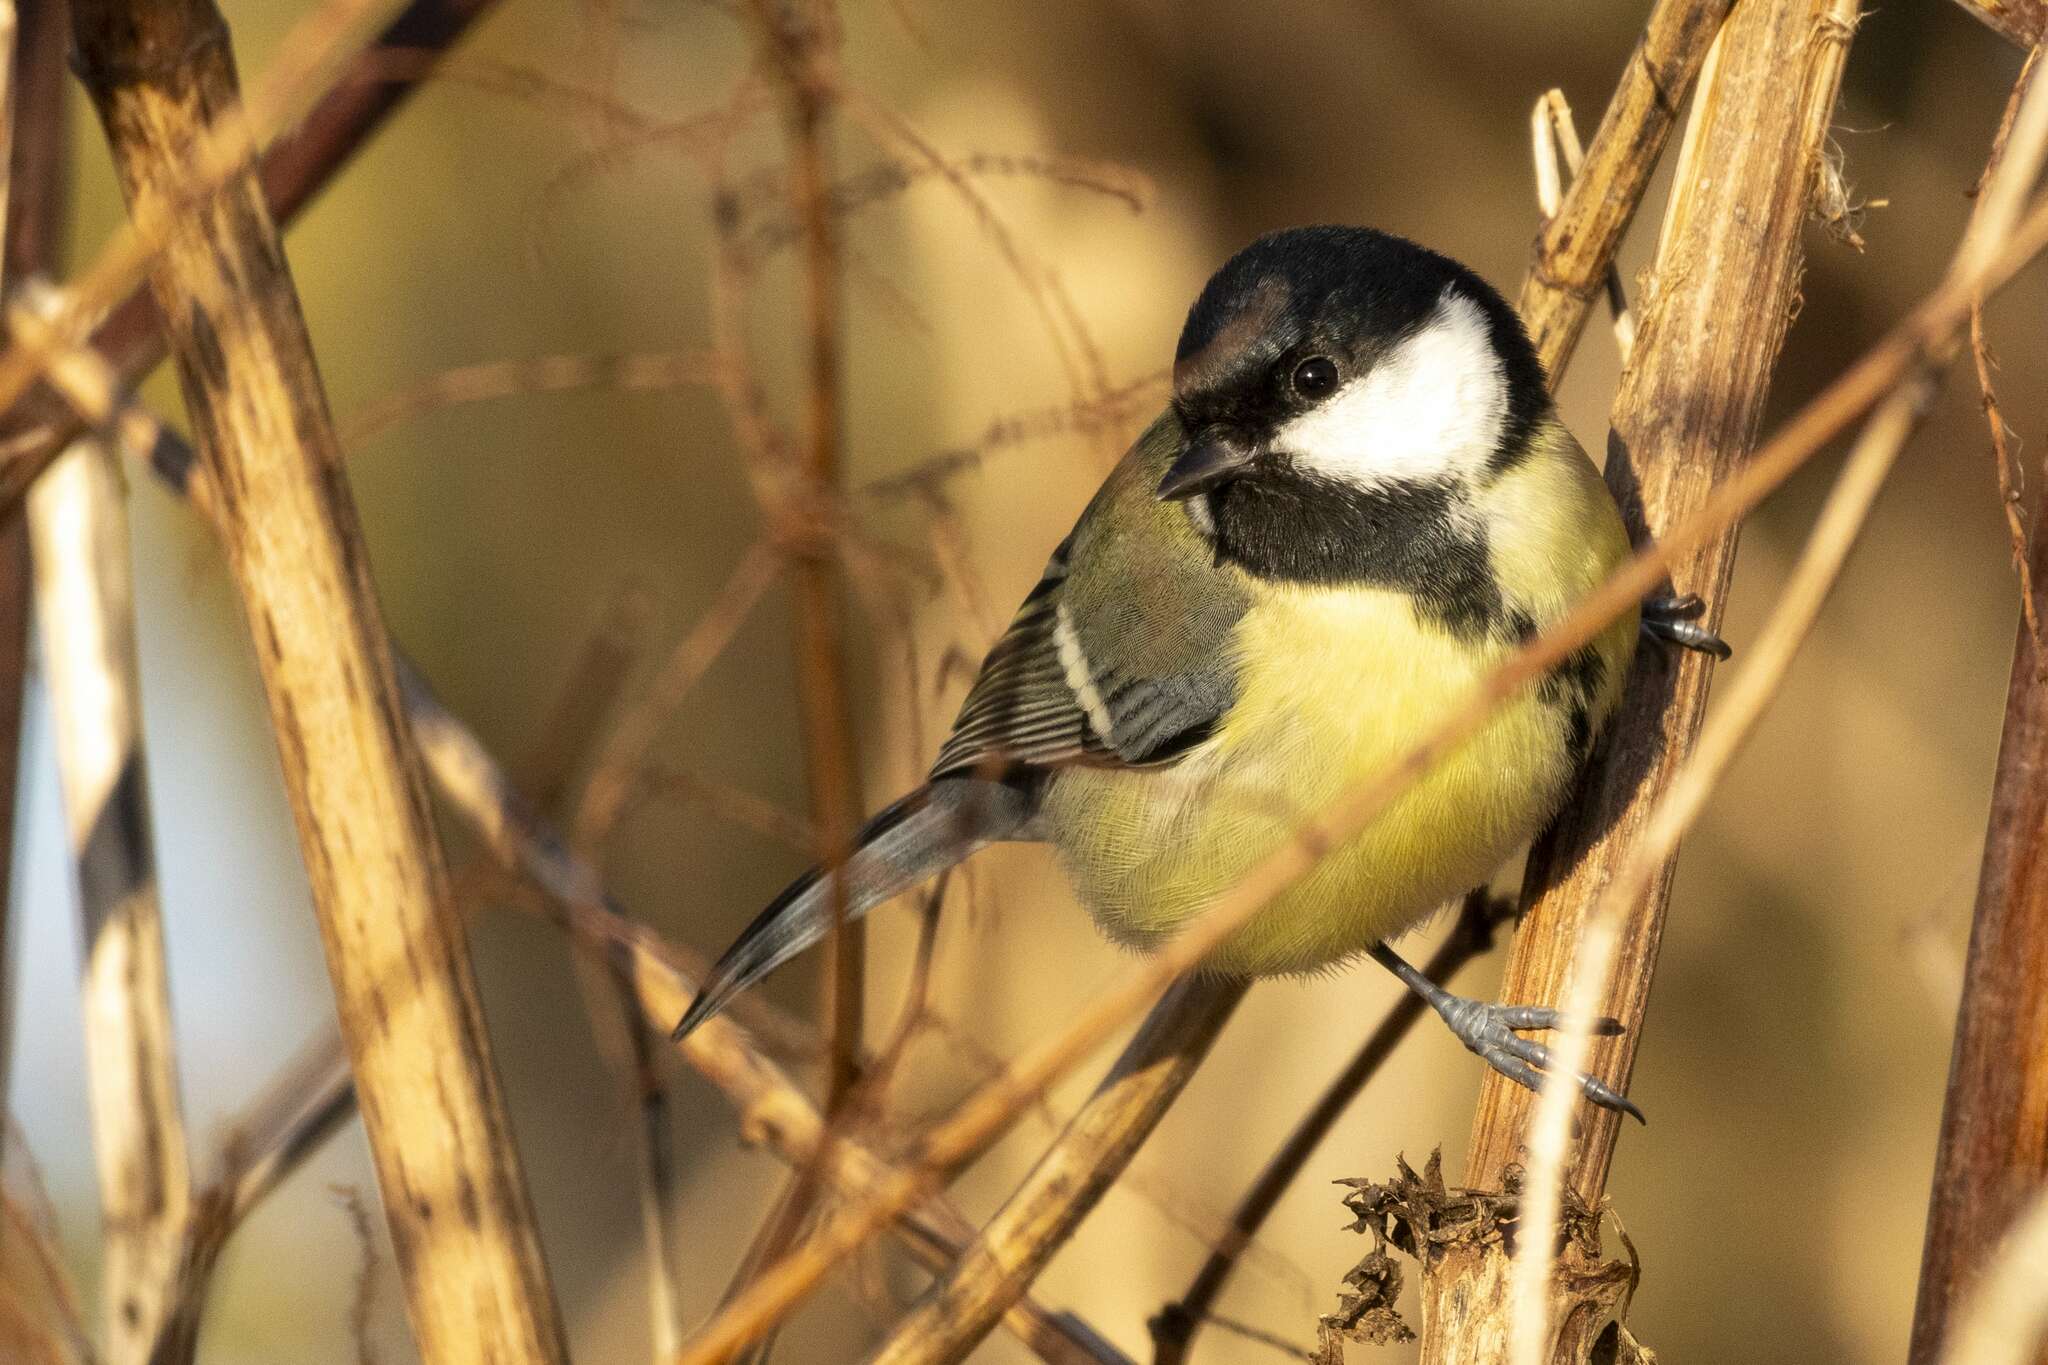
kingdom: Animalia
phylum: Chordata
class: Aves
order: Passeriformes
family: Paridae
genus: Parus
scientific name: Parus major
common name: Great tit
